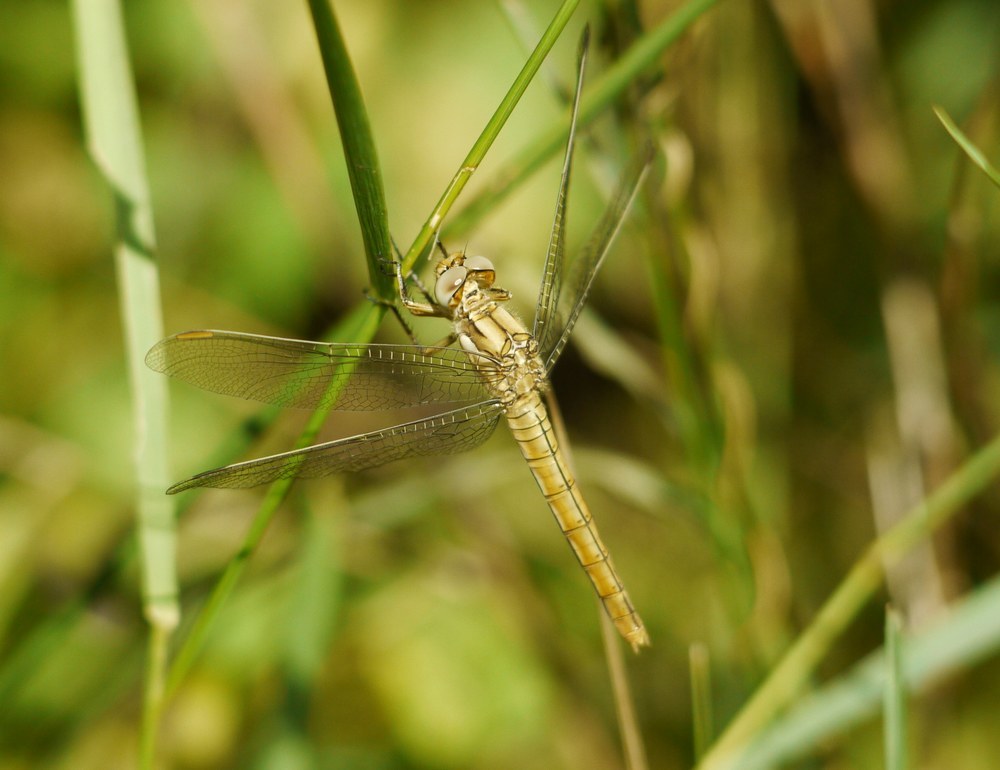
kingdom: Animalia
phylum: Arthropoda
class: Insecta
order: Odonata
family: Libellulidae
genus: Orthetrum
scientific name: Orthetrum brunneum
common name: Southern skimmer
